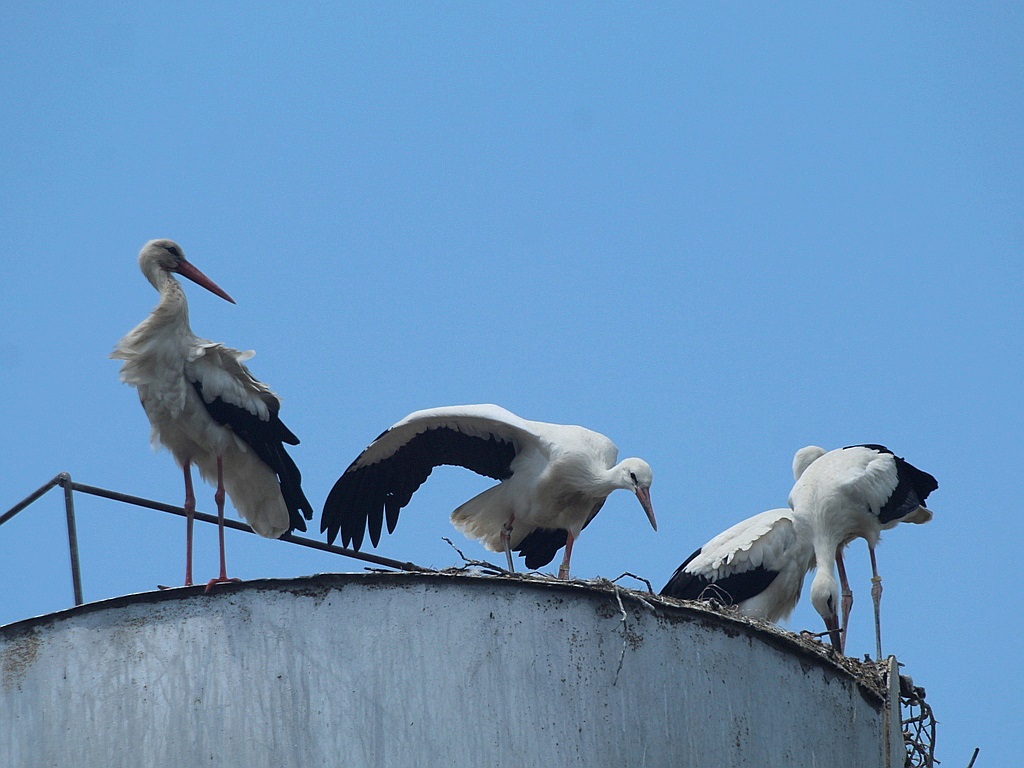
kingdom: Animalia
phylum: Chordata
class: Aves
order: Ciconiiformes
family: Ciconiidae
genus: Ciconia
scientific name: Ciconia ciconia
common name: White stork
